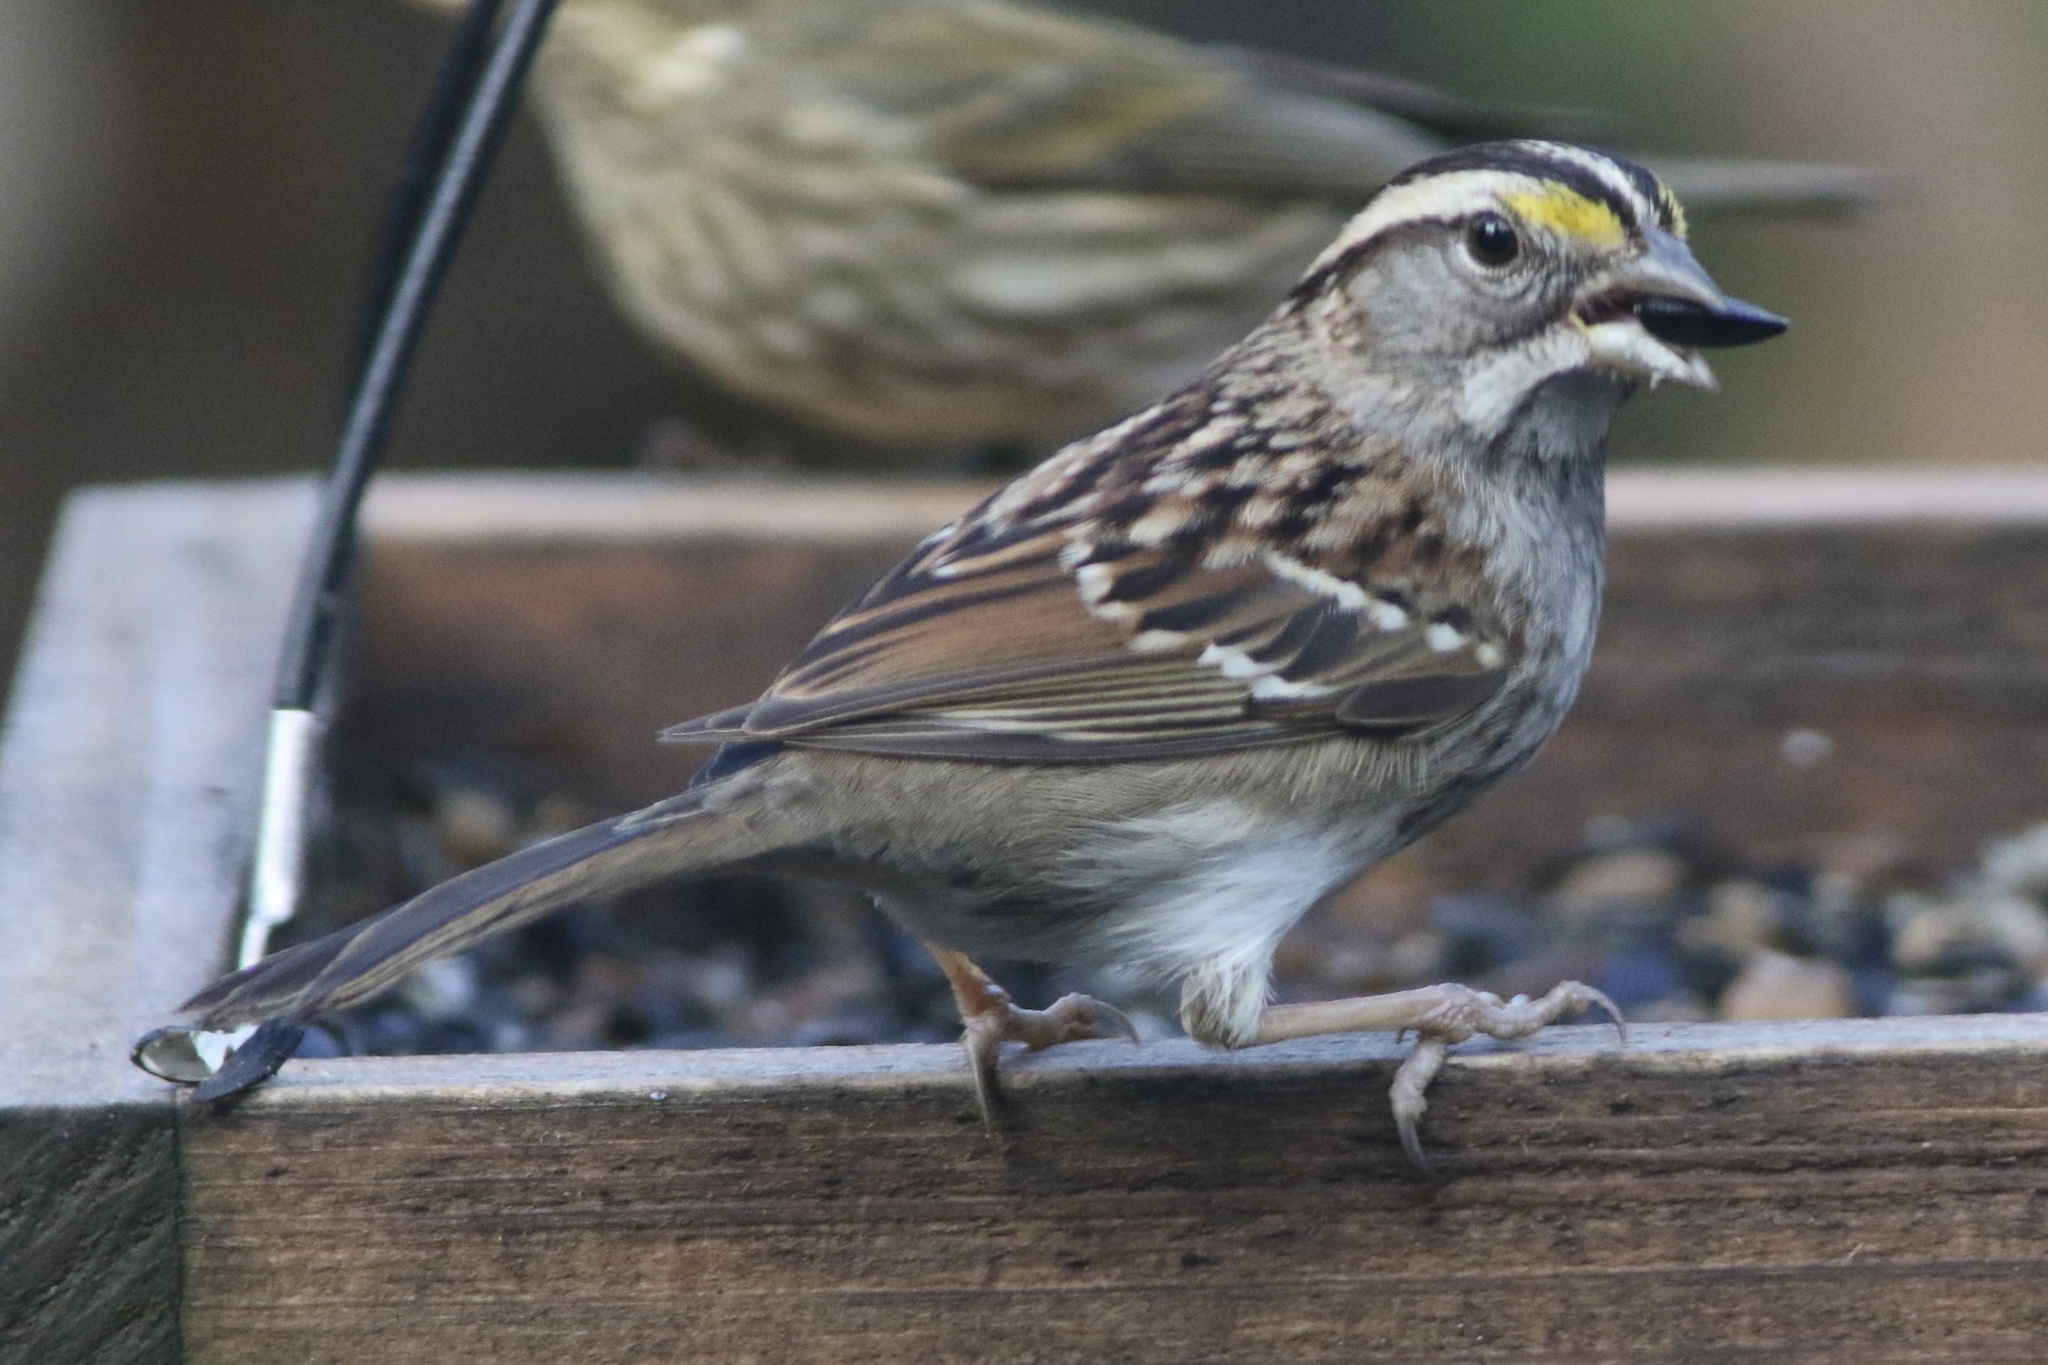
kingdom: Animalia
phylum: Chordata
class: Aves
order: Passeriformes
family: Passerellidae
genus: Zonotrichia
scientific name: Zonotrichia albicollis
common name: White-throated sparrow
